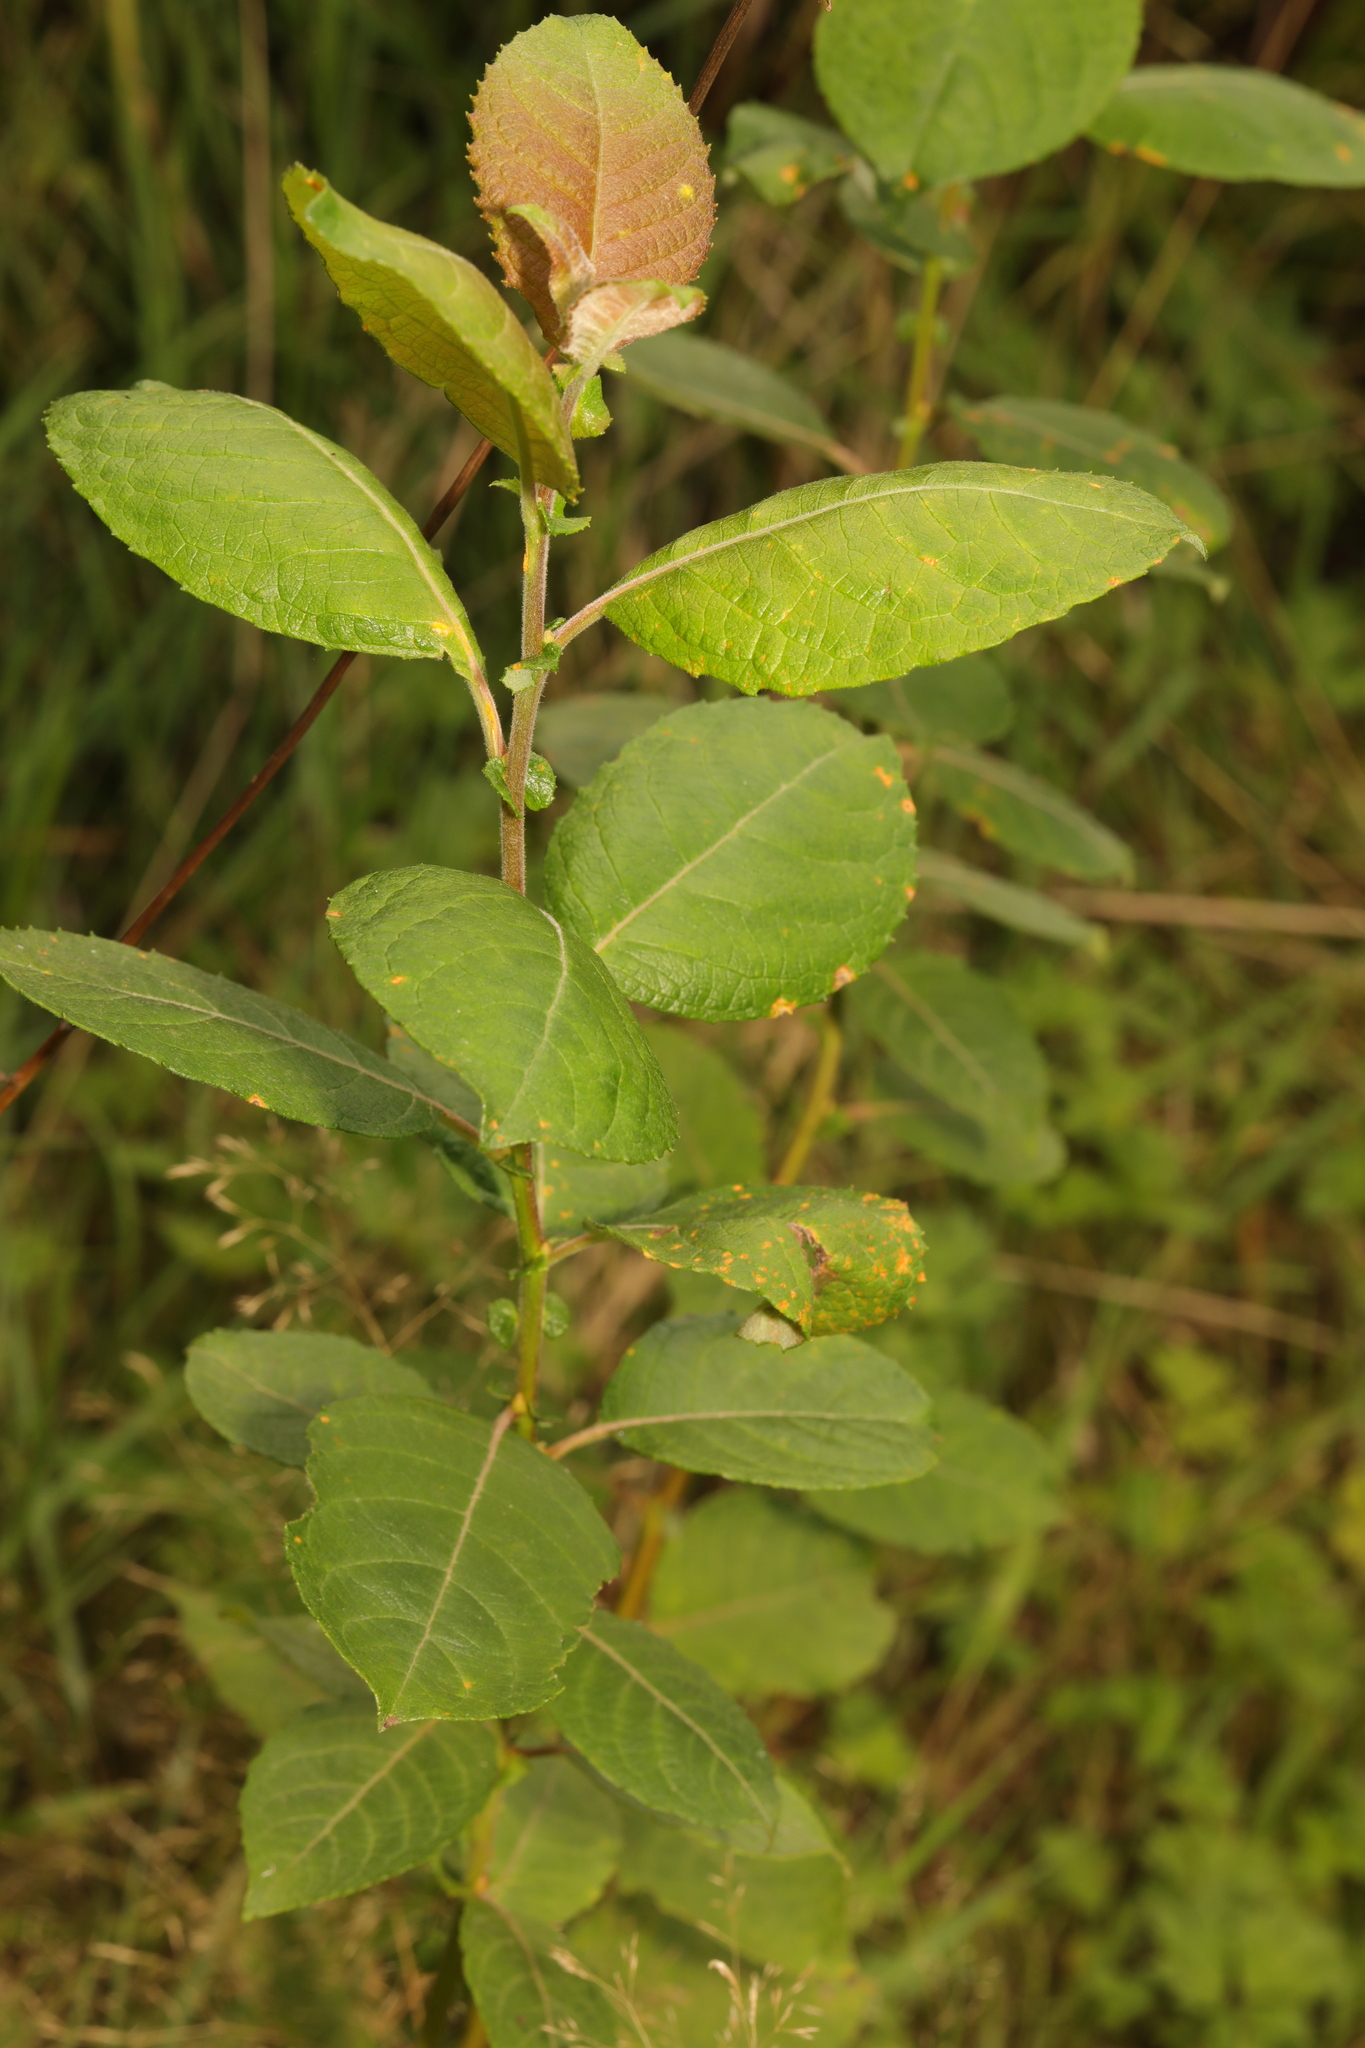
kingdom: Plantae
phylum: Tracheophyta
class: Magnoliopsida
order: Malpighiales
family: Salicaceae
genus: Salix
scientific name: Salix caprea
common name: Goat willow
